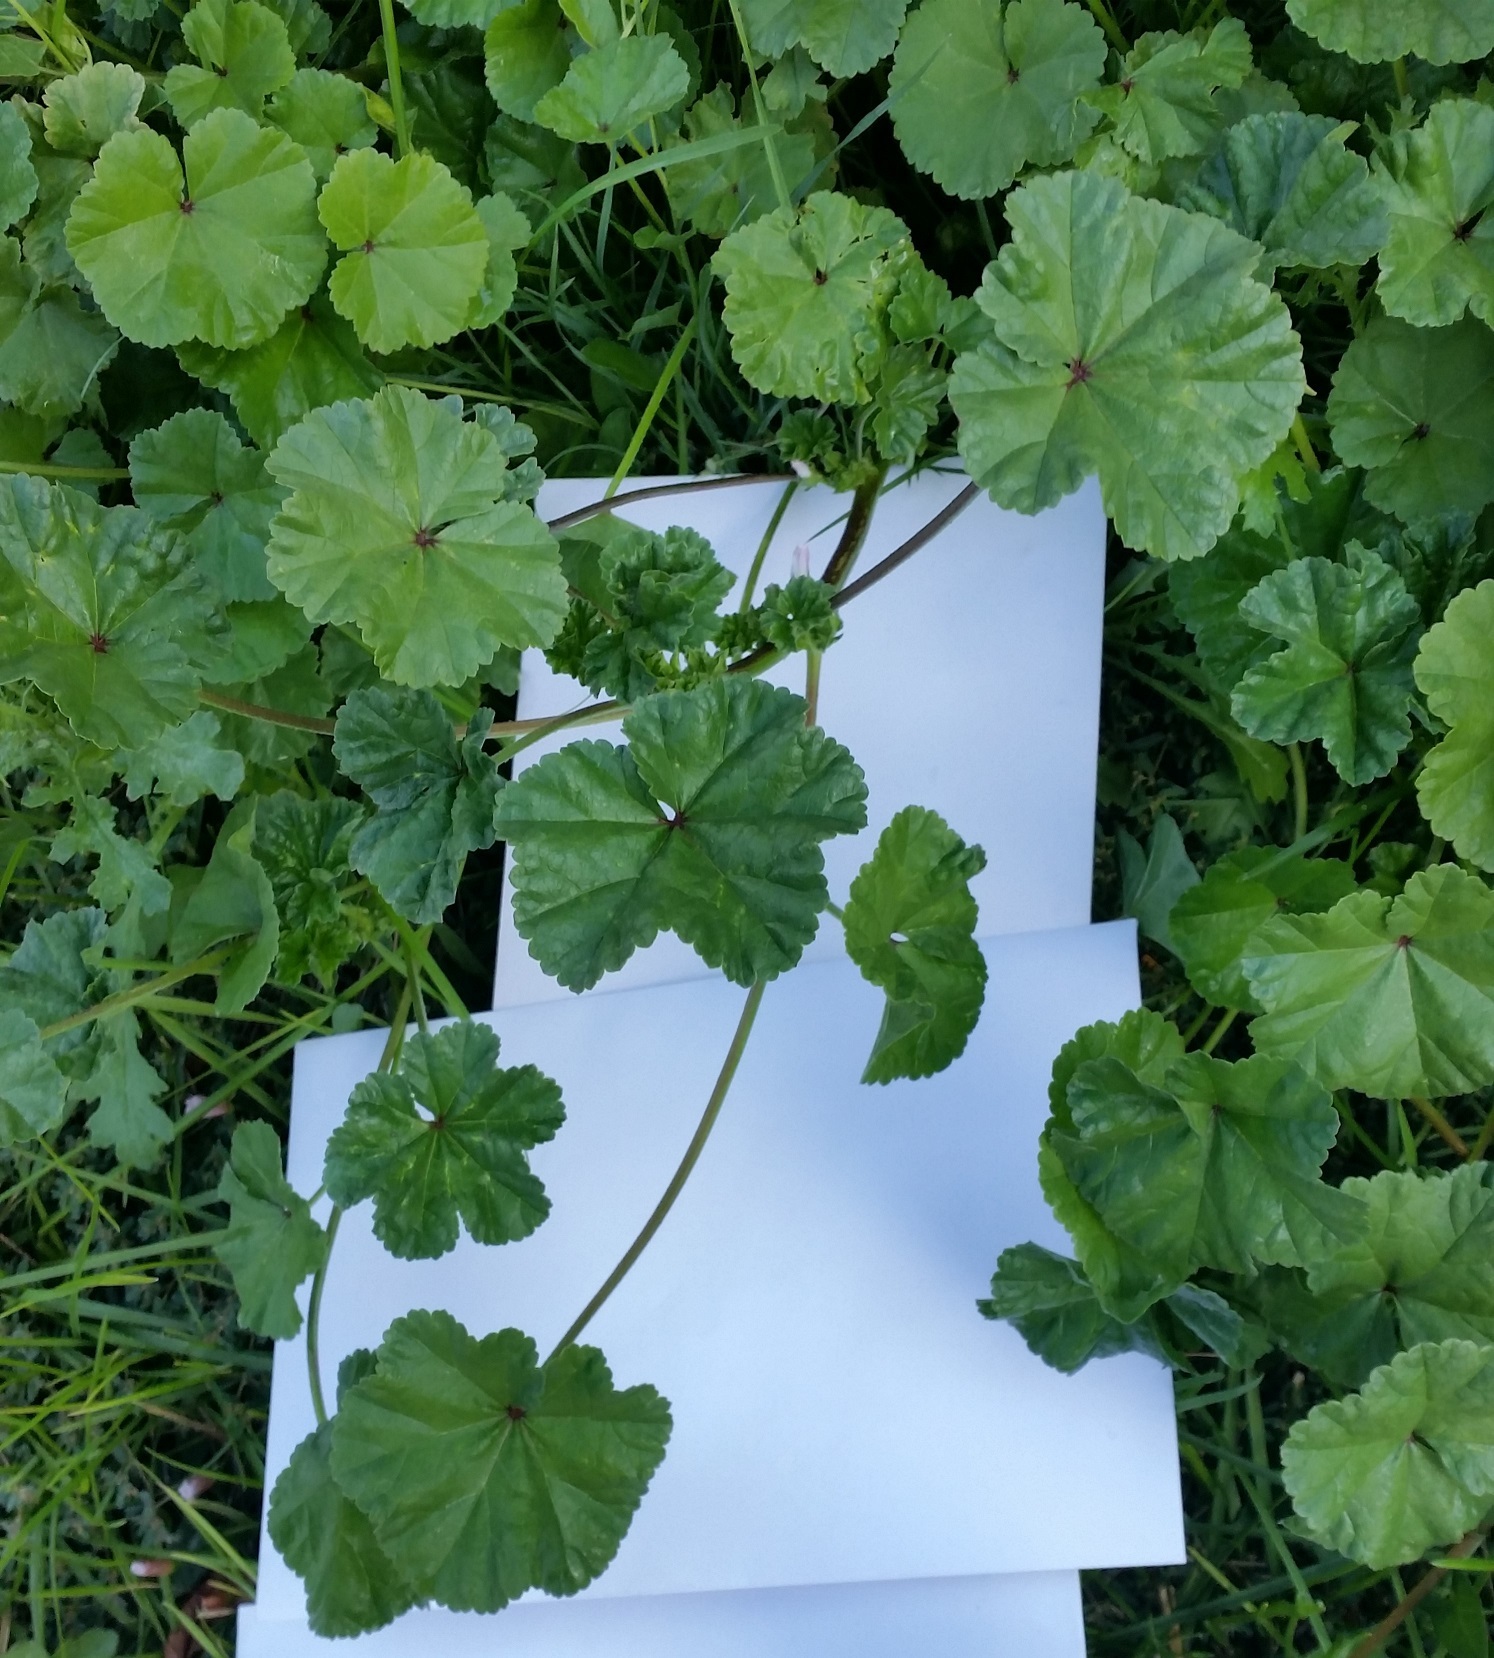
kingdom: Plantae
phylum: Tracheophyta
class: Magnoliopsida
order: Malvales
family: Malvaceae
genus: Malva
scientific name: Malva neglecta
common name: Common mallow
